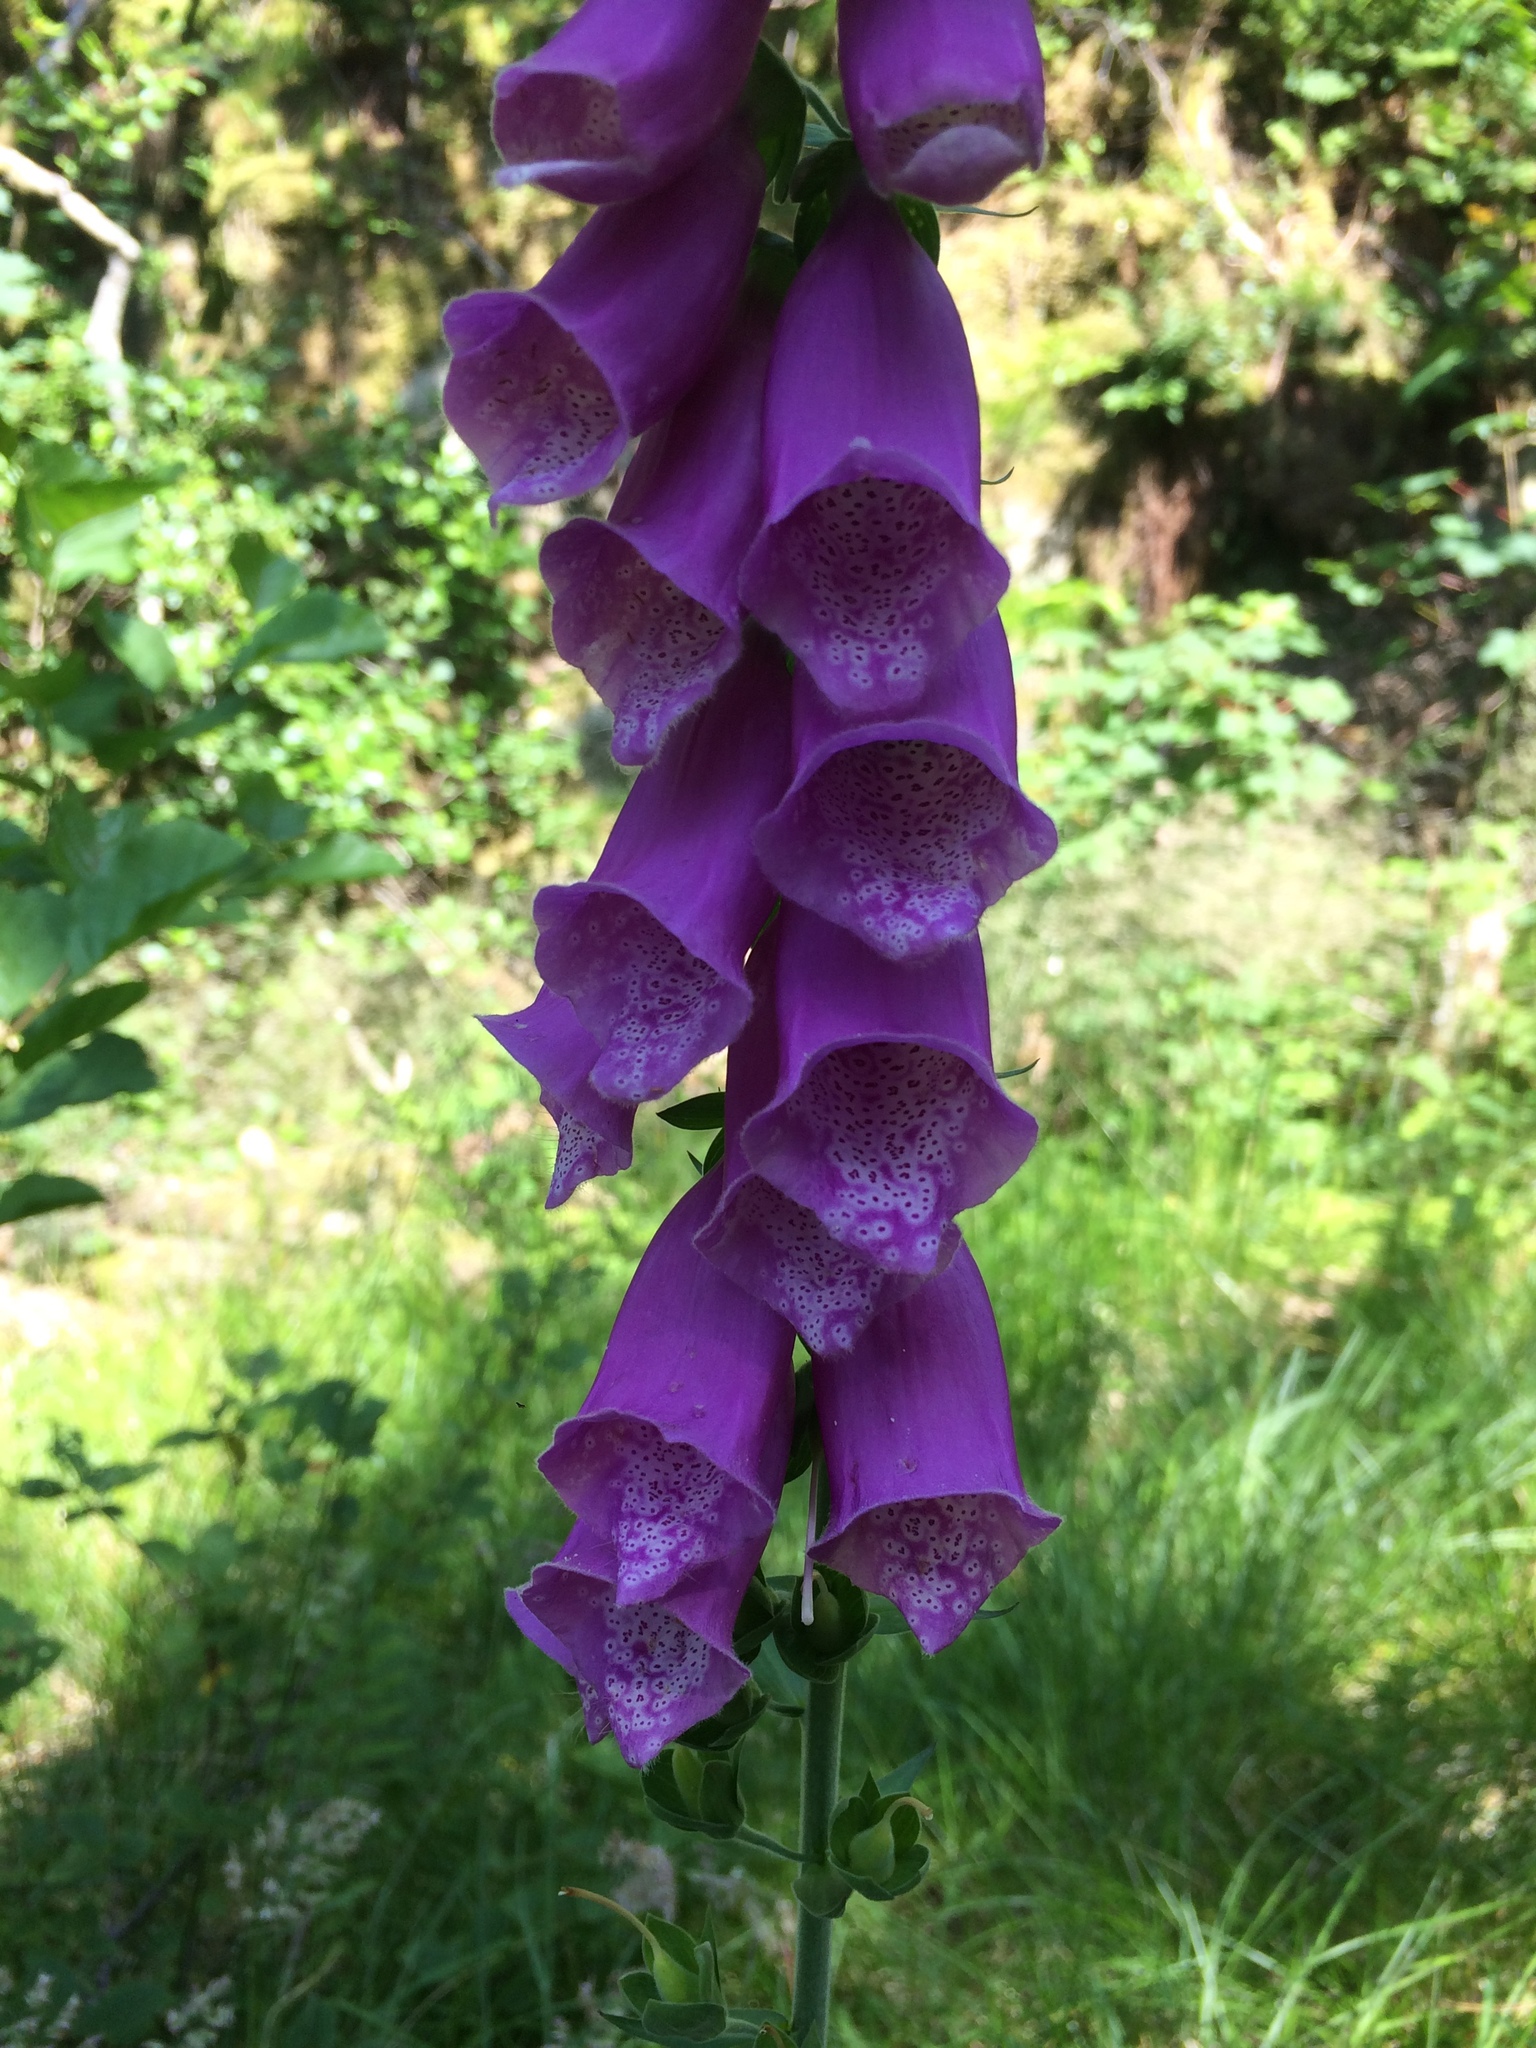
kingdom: Plantae
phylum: Tracheophyta
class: Magnoliopsida
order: Lamiales
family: Plantaginaceae
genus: Digitalis
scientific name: Digitalis purpurea
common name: Foxglove
